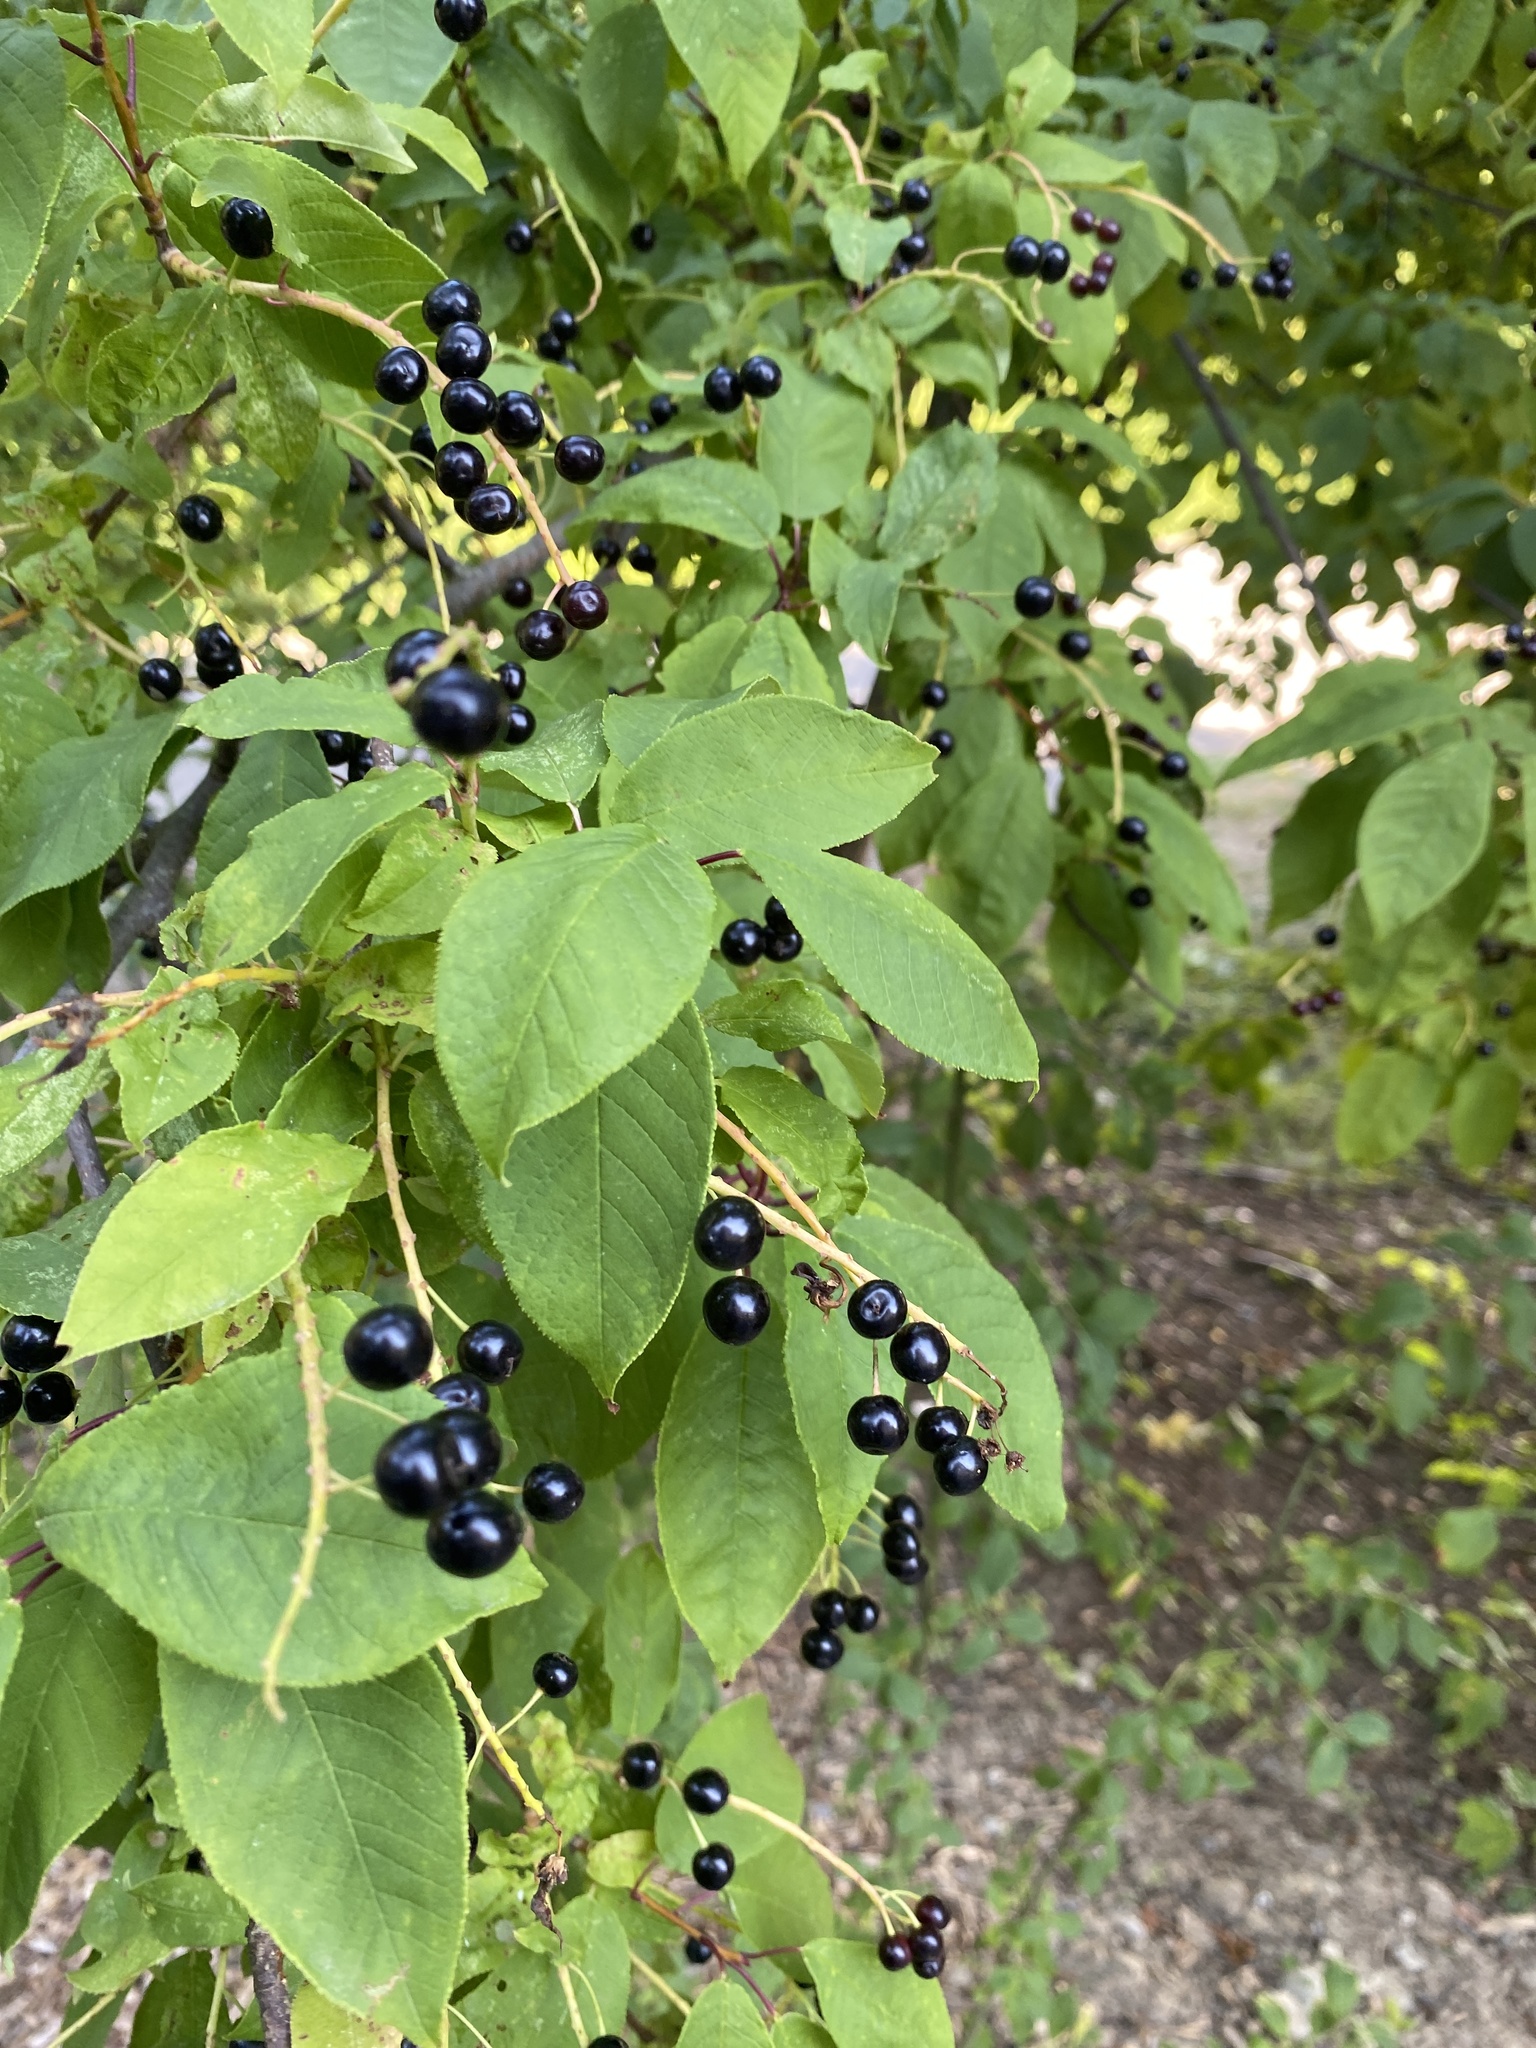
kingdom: Plantae
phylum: Tracheophyta
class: Magnoliopsida
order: Rosales
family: Rosaceae
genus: Prunus
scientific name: Prunus padus
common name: Bird cherry
